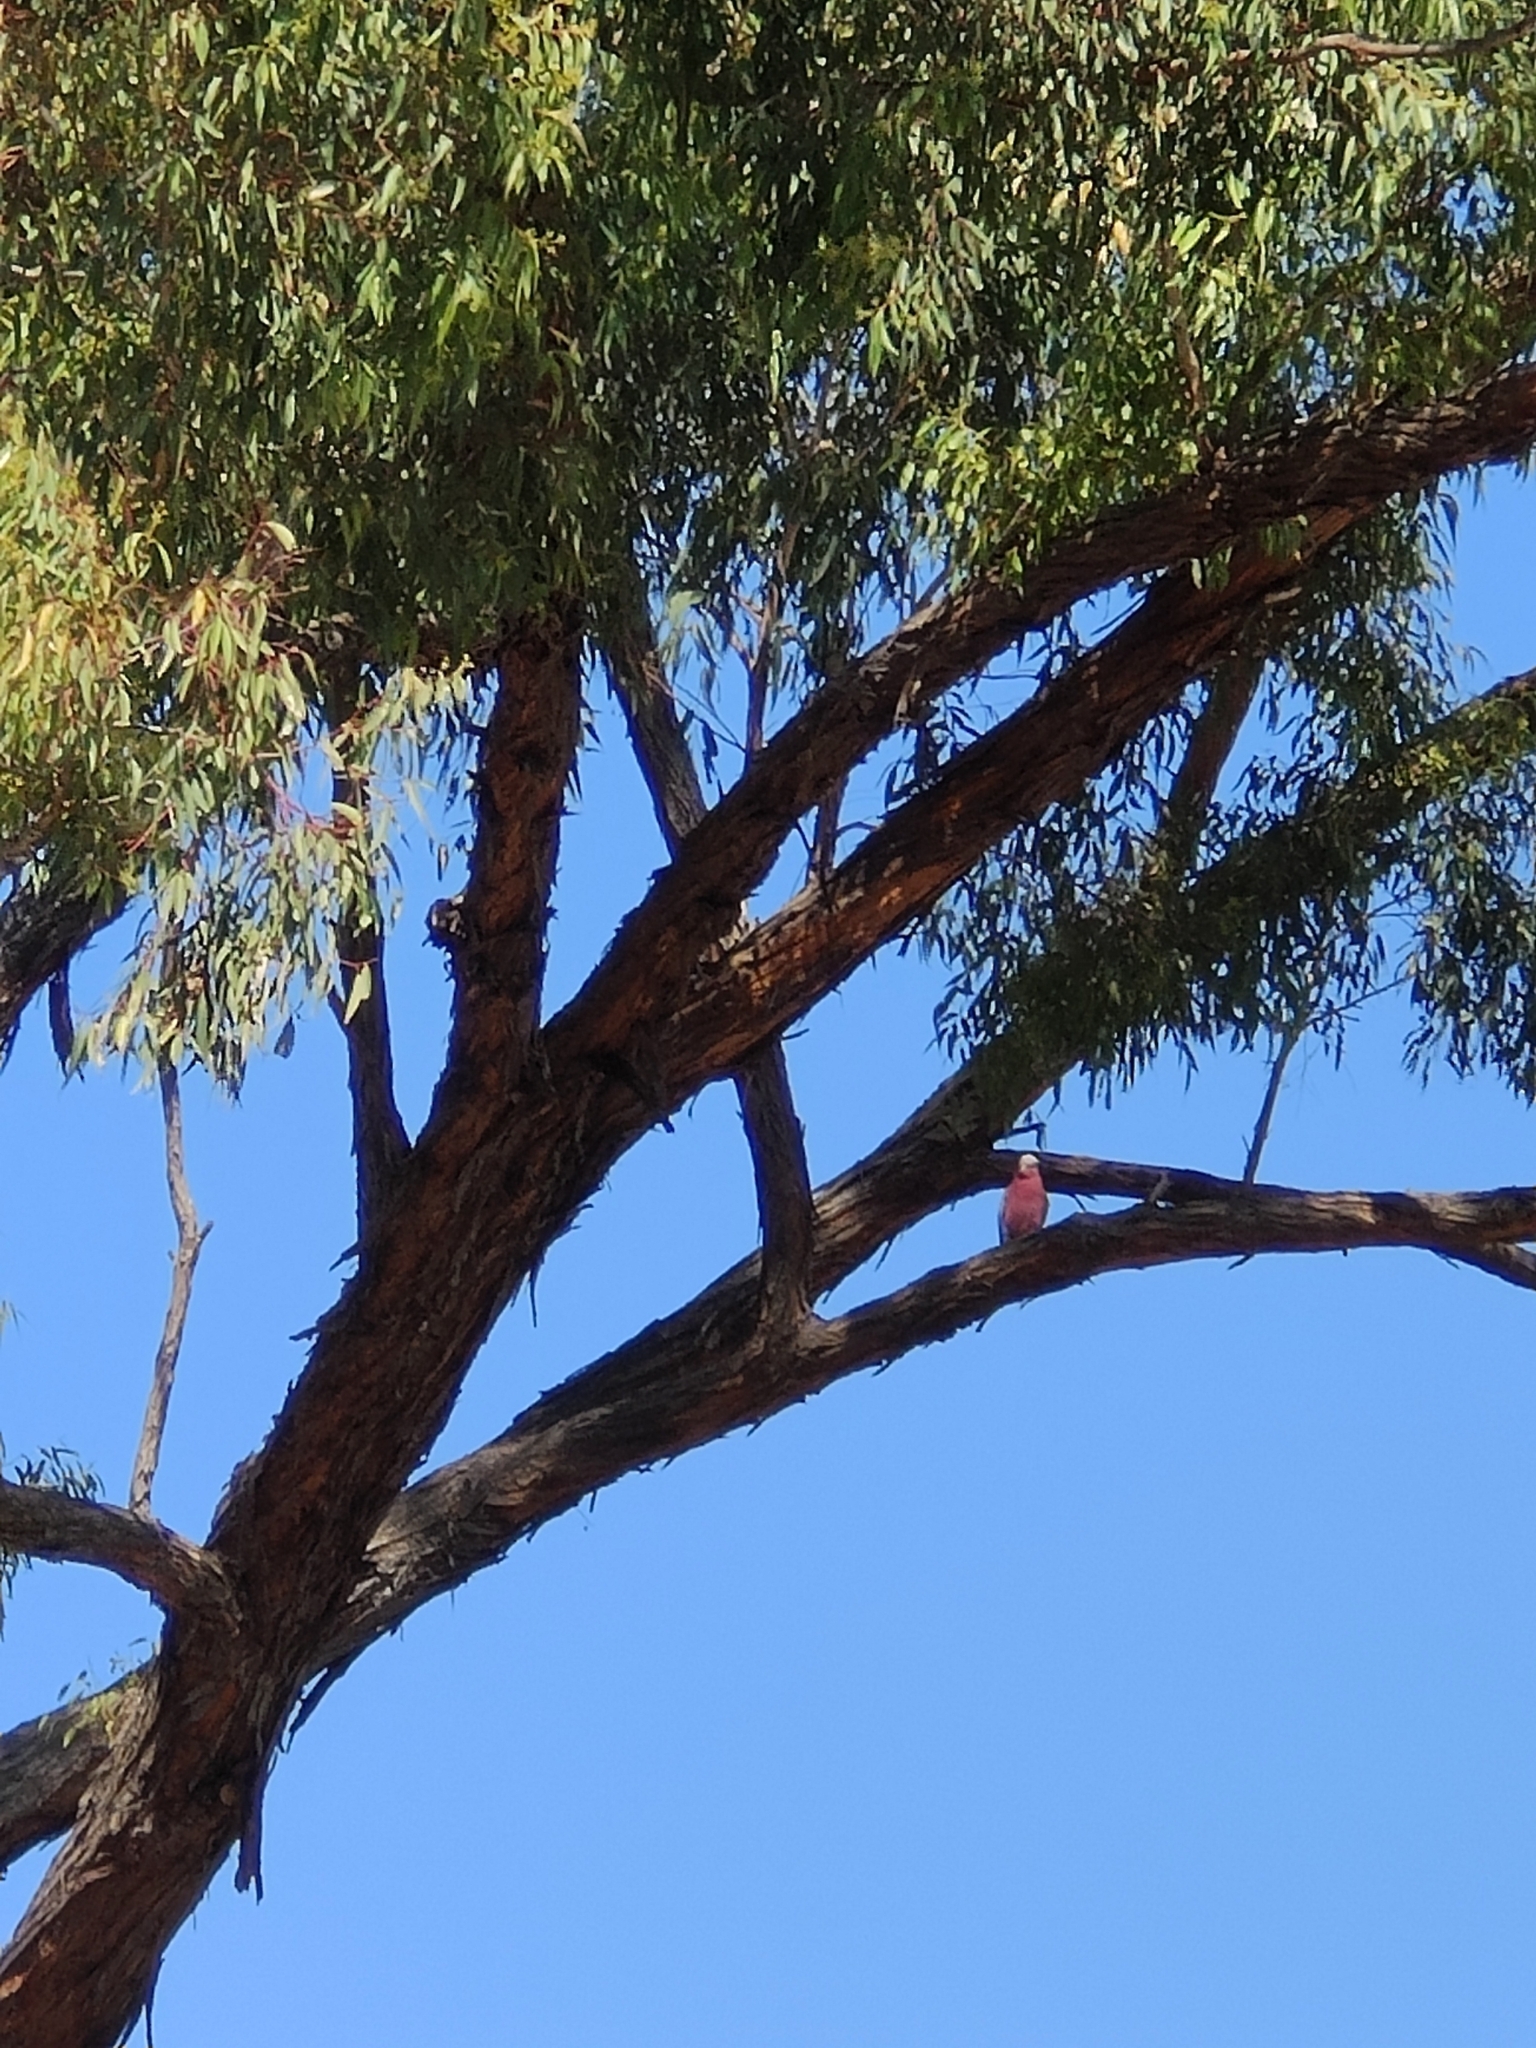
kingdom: Animalia
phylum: Chordata
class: Aves
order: Psittaciformes
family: Psittacidae
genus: Eolophus
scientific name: Eolophus roseicapilla
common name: Galah
